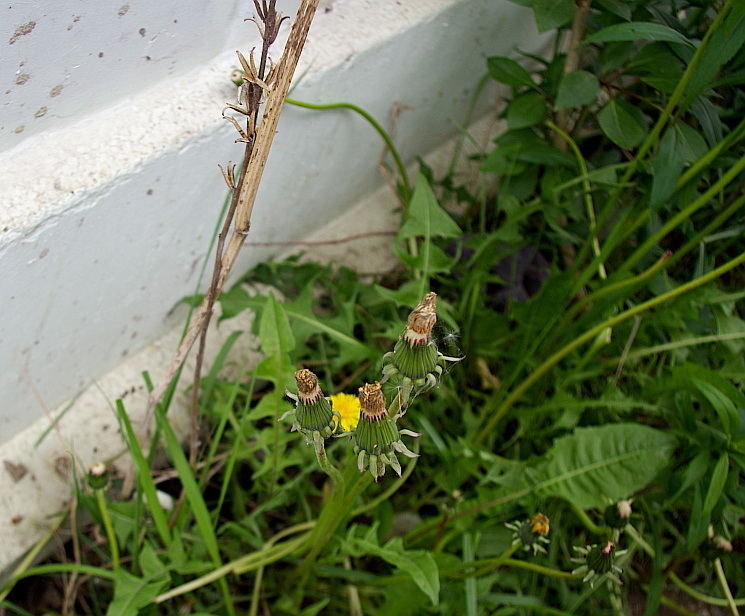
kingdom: Plantae
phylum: Tracheophyta
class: Magnoliopsida
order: Asterales
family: Asteraceae
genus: Taraxacum
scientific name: Taraxacum officinale
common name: Common dandelion
